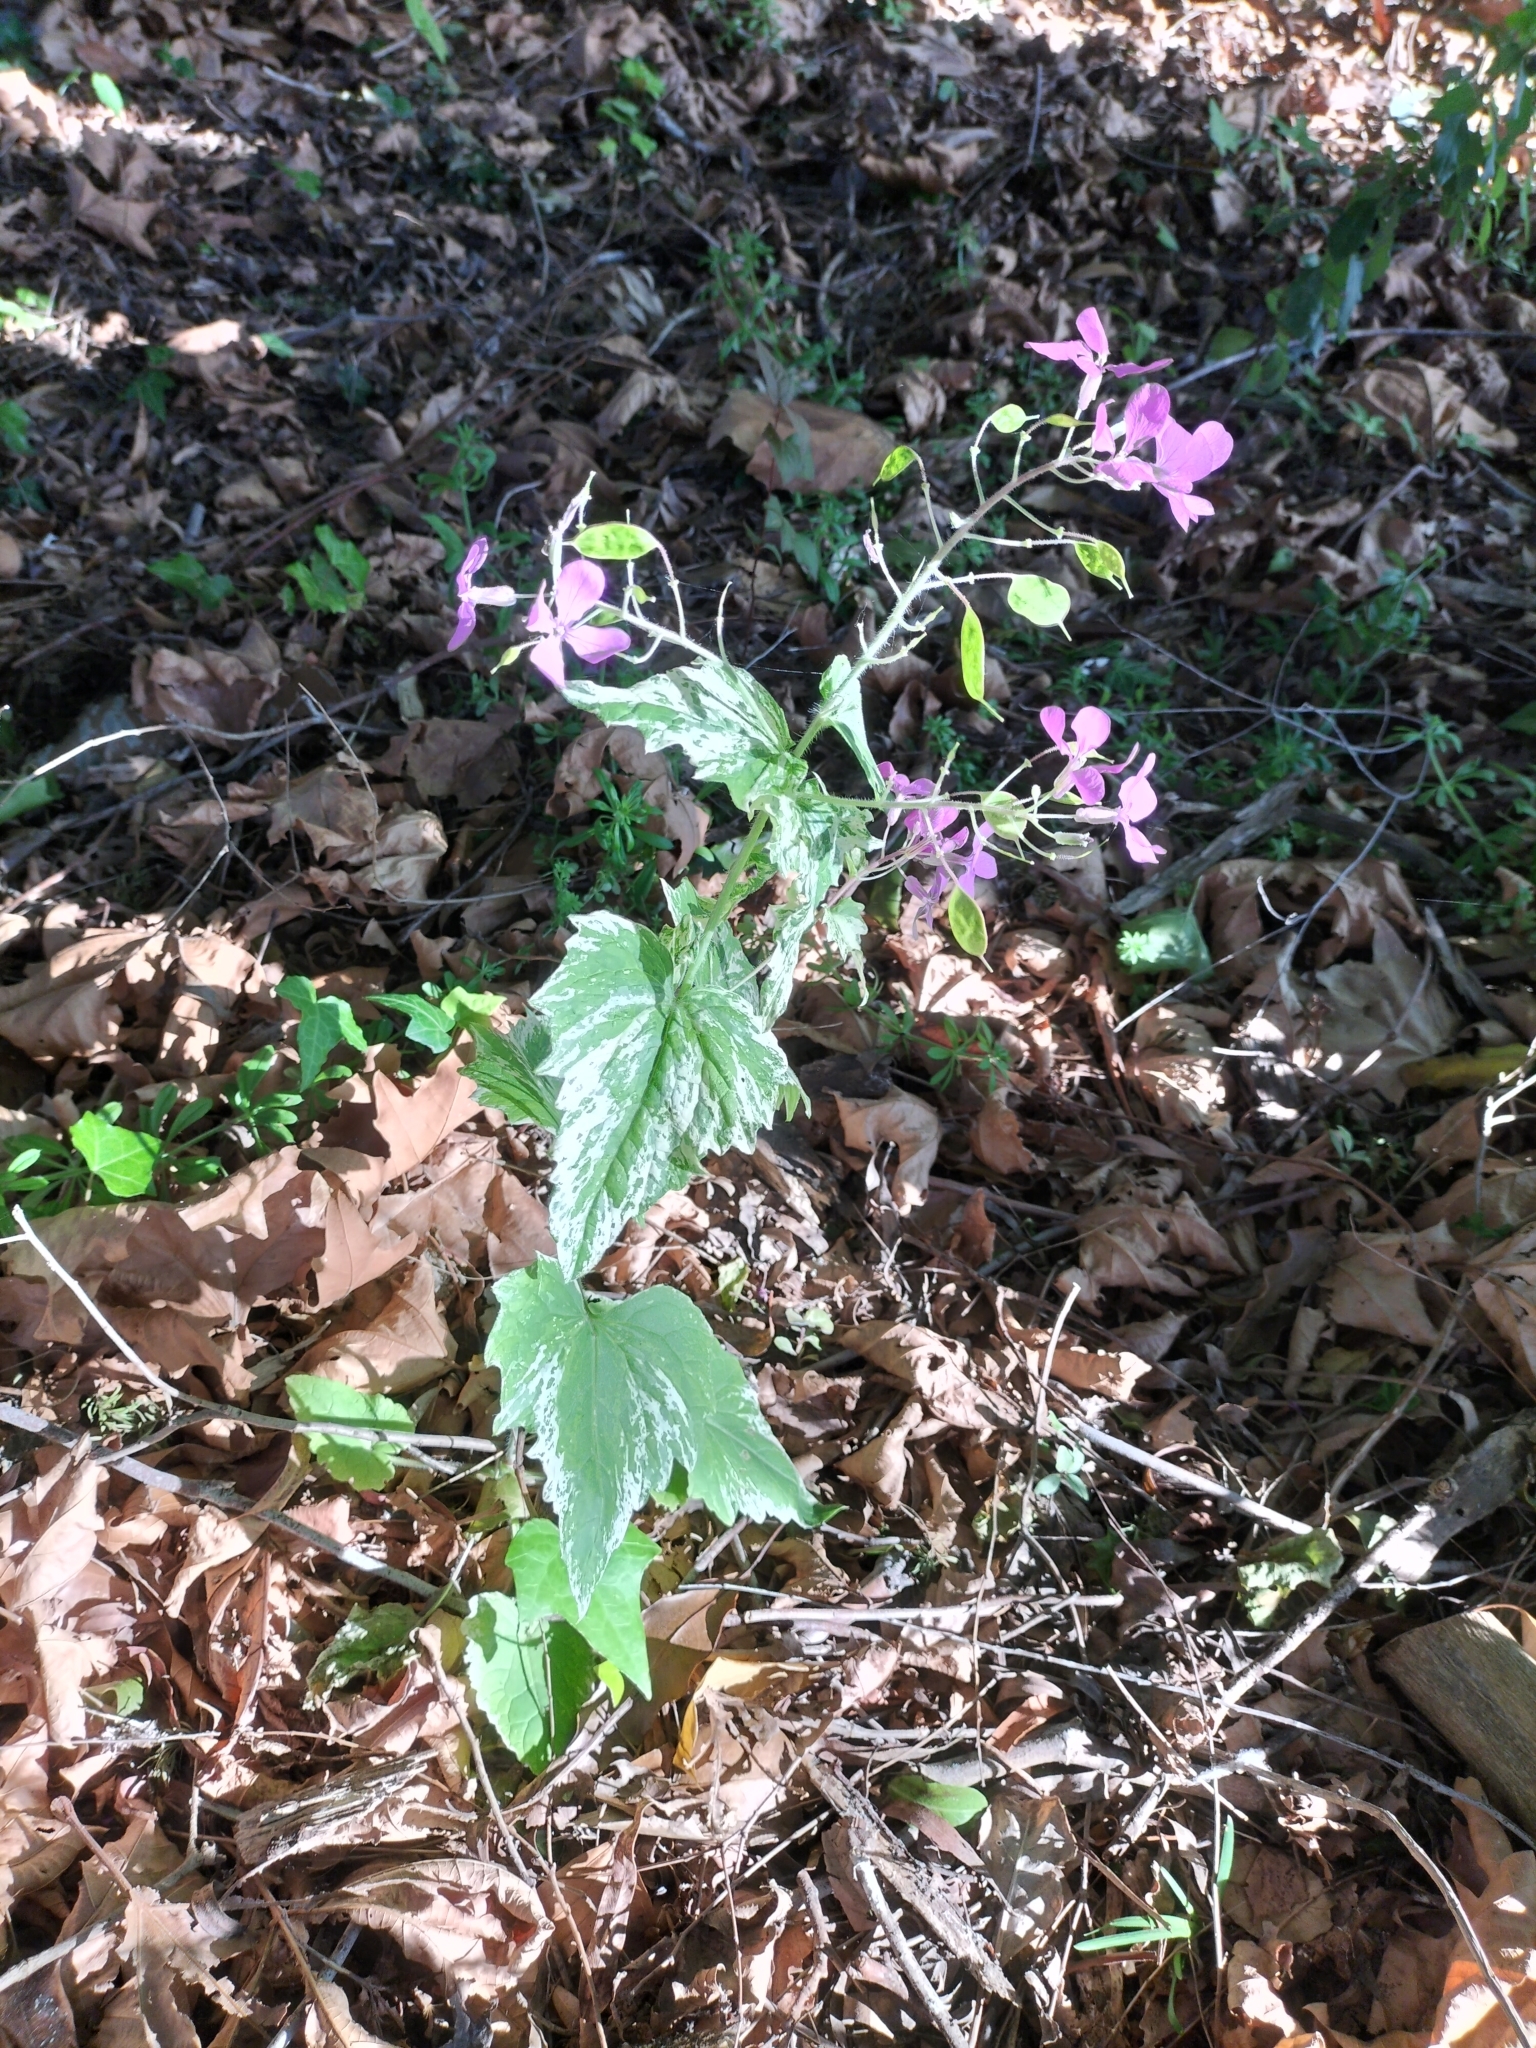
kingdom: Plantae
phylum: Tracheophyta
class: Magnoliopsida
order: Brassicales
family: Brassicaceae
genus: Lunaria
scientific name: Lunaria annua
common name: Honesty
